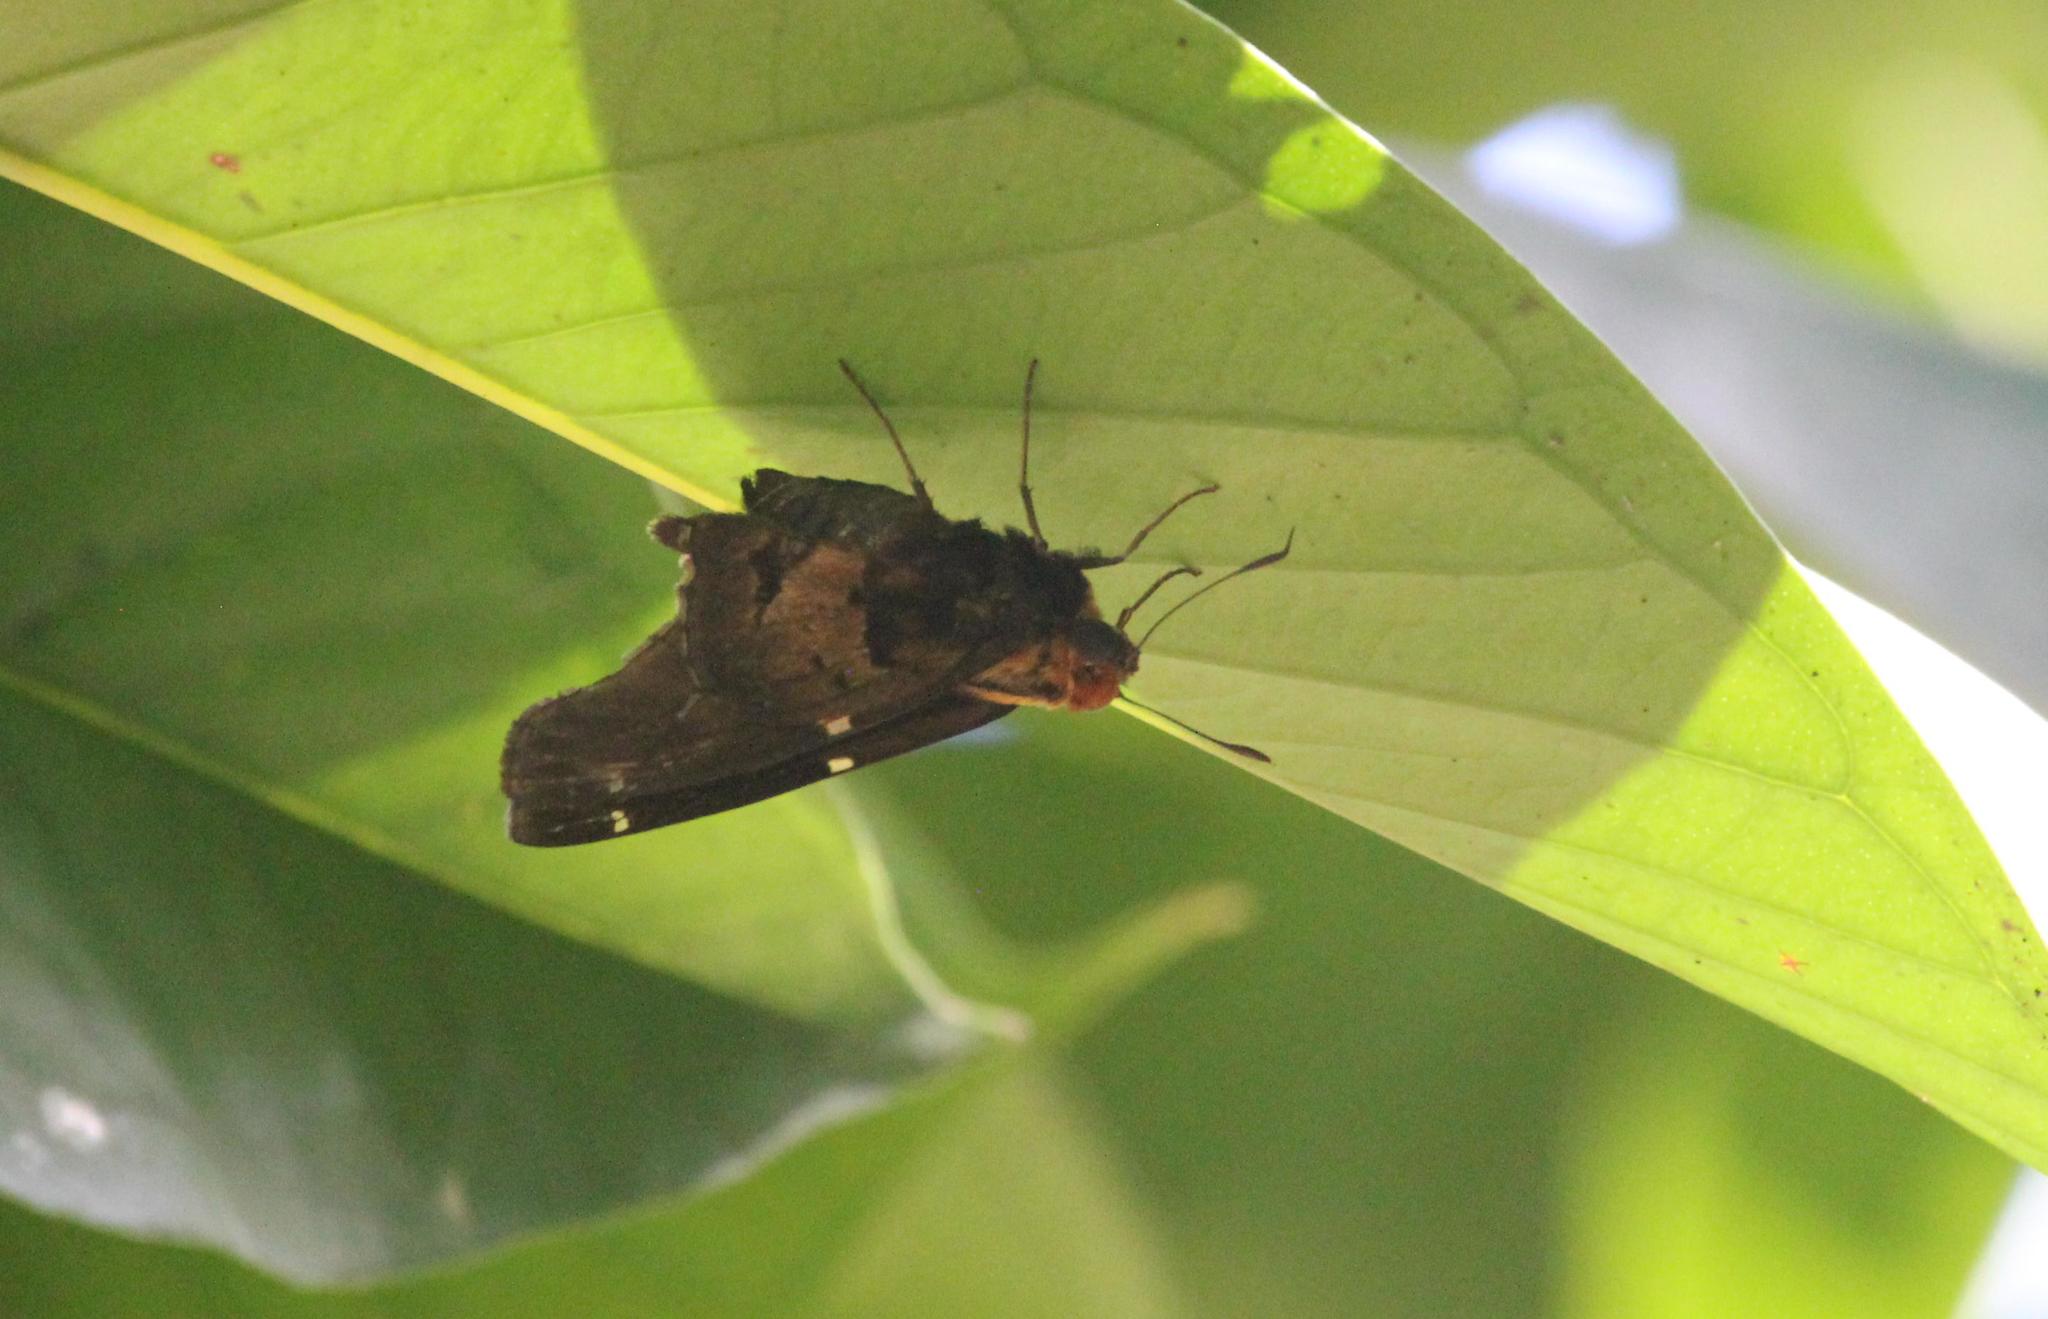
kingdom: Animalia
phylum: Arthropoda
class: Insecta
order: Lepidoptera
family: Hesperiidae
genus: Proteides
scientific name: Proteides mercurius
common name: Mercurial skipper
